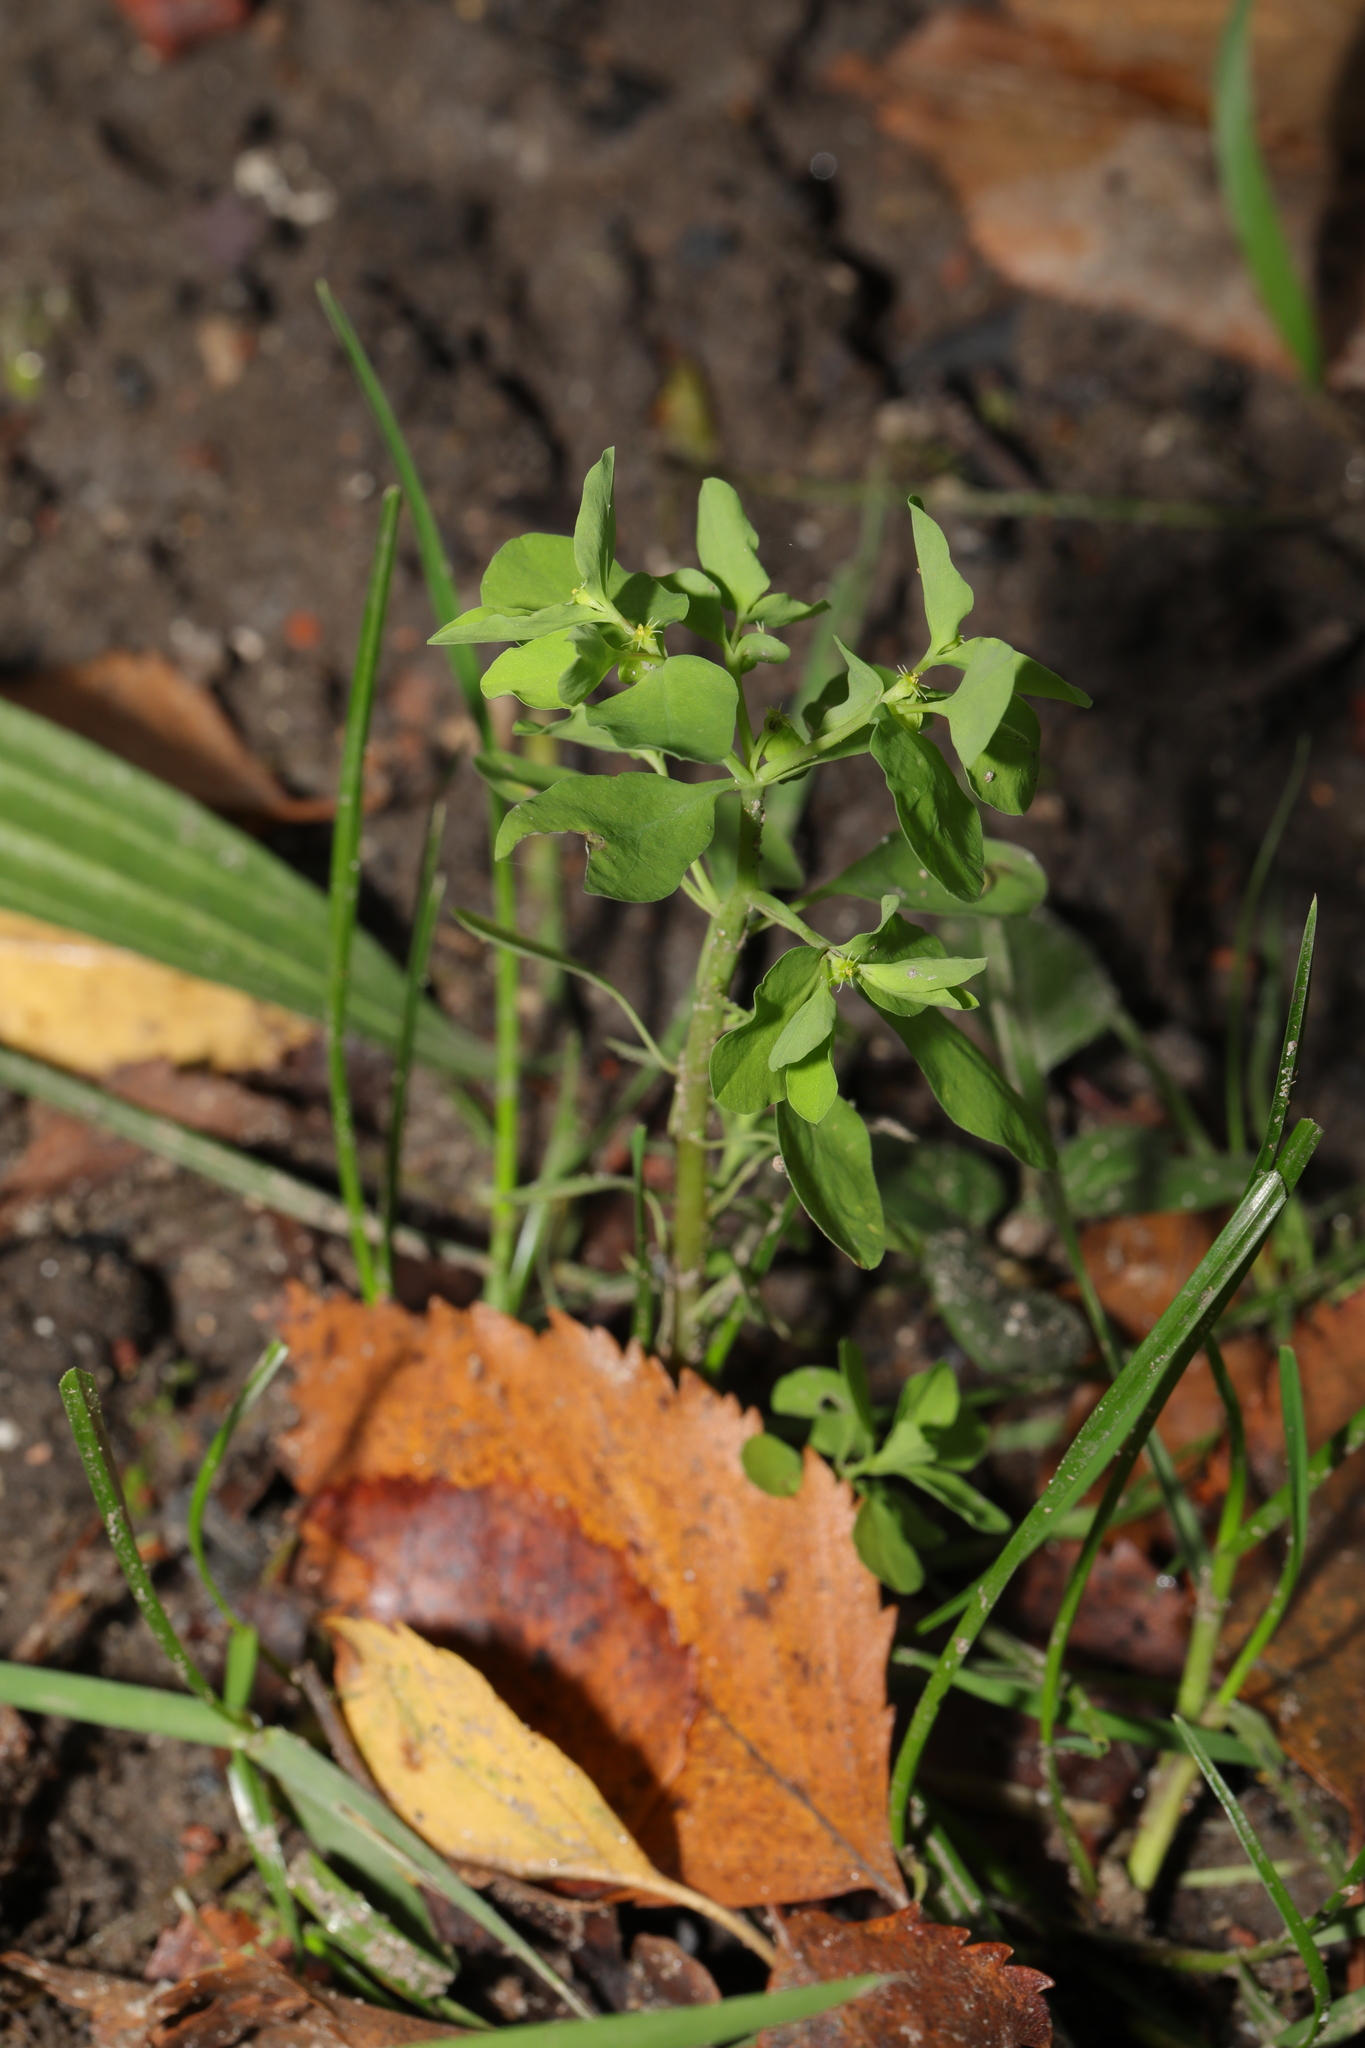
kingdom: Plantae
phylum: Tracheophyta
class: Magnoliopsida
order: Malpighiales
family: Euphorbiaceae
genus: Euphorbia
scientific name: Euphorbia peplus
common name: Petty spurge
